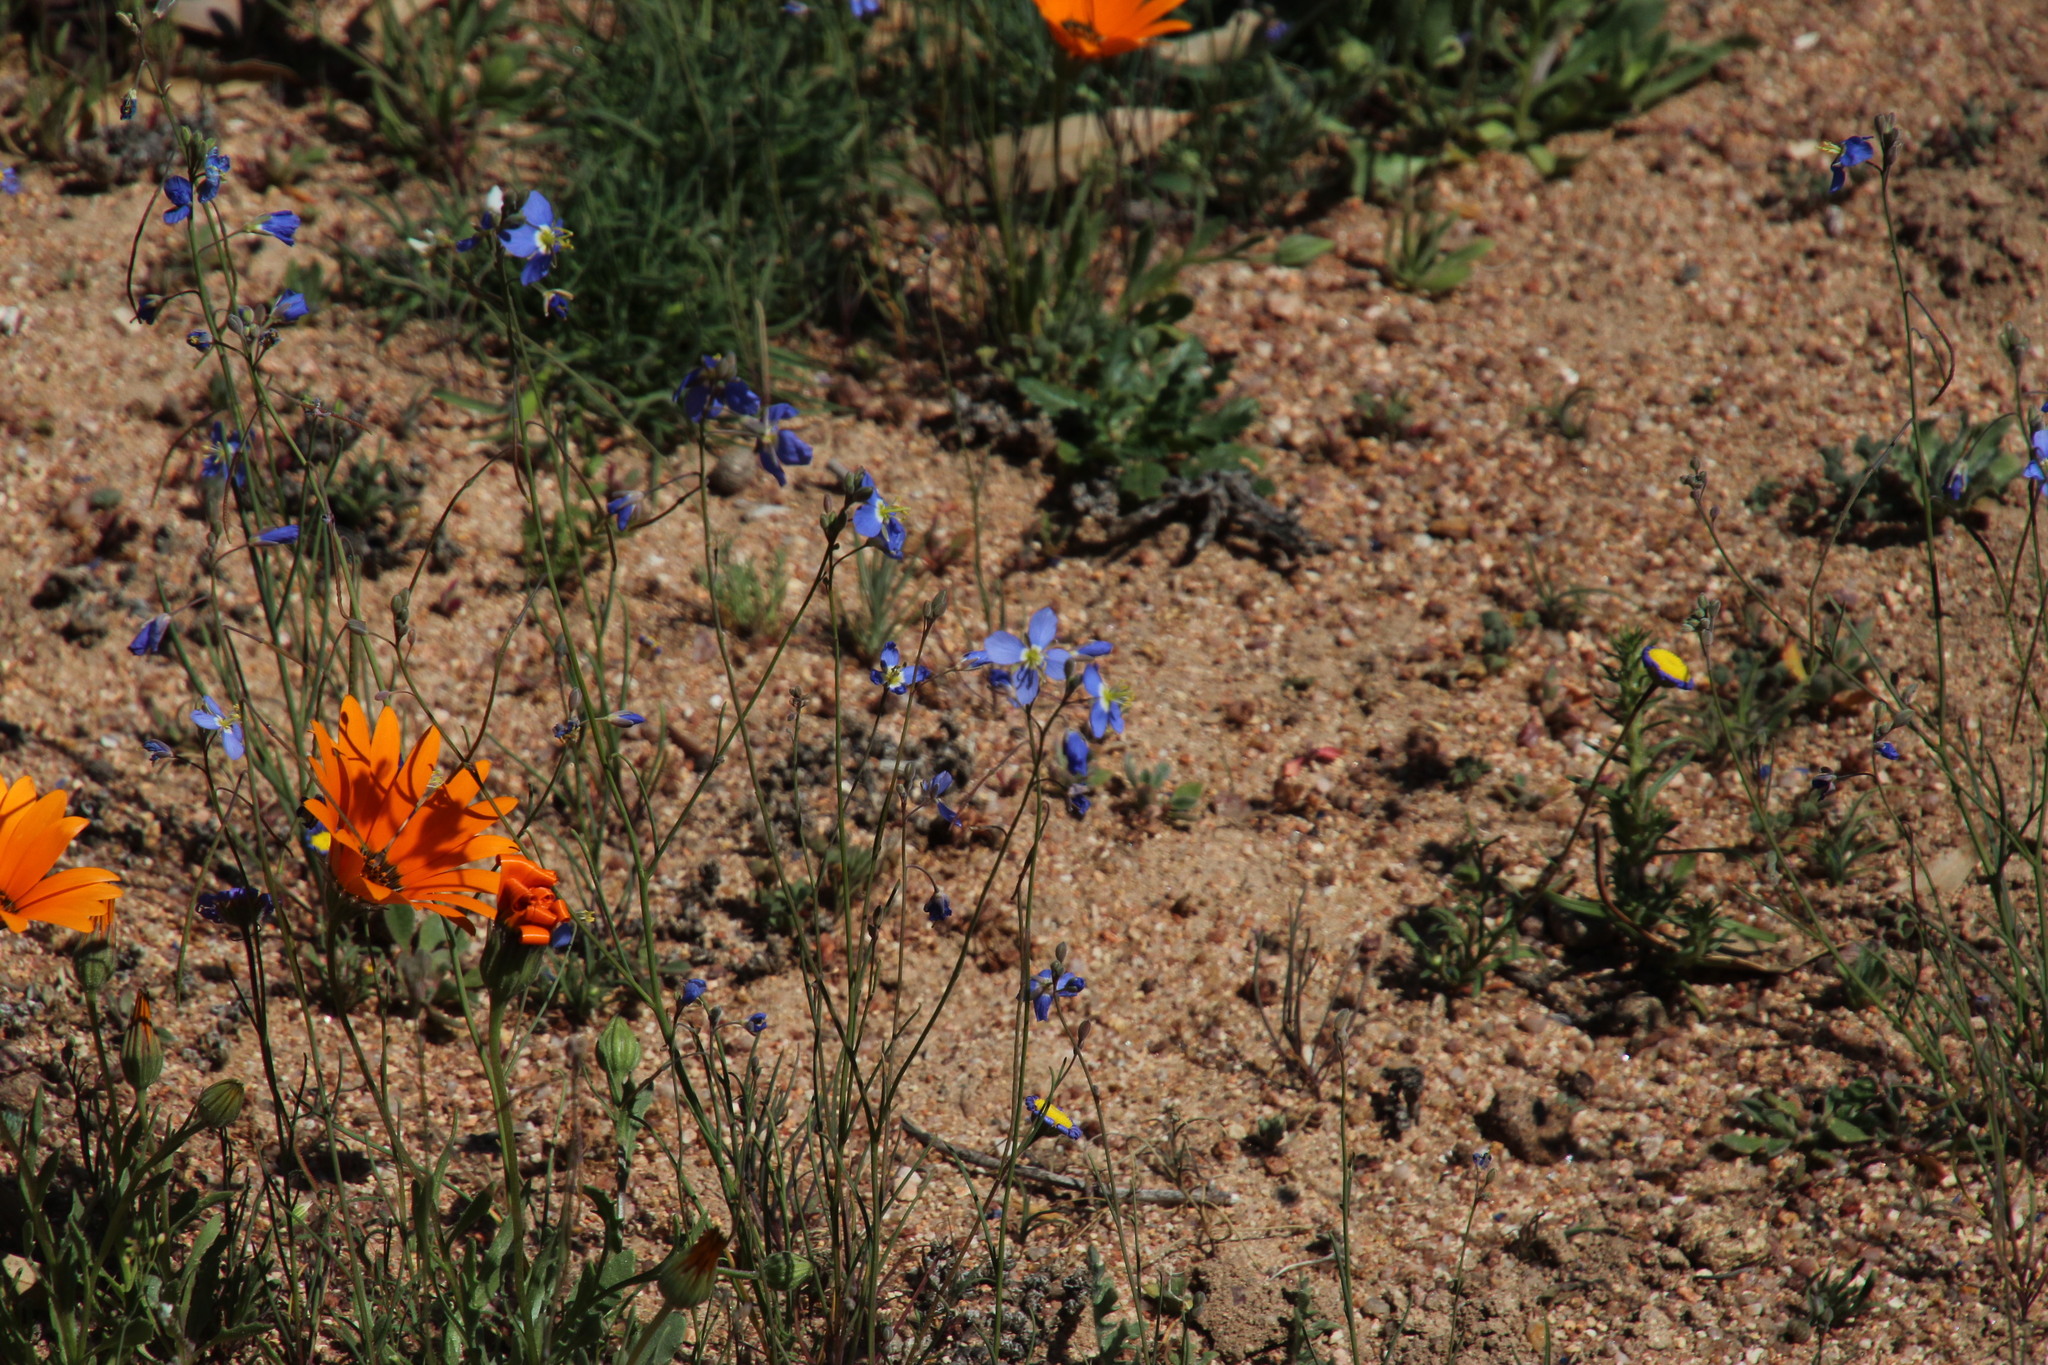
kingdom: Plantae
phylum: Tracheophyta
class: Magnoliopsida
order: Brassicales
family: Brassicaceae
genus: Heliophila
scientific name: Heliophila schulzii
